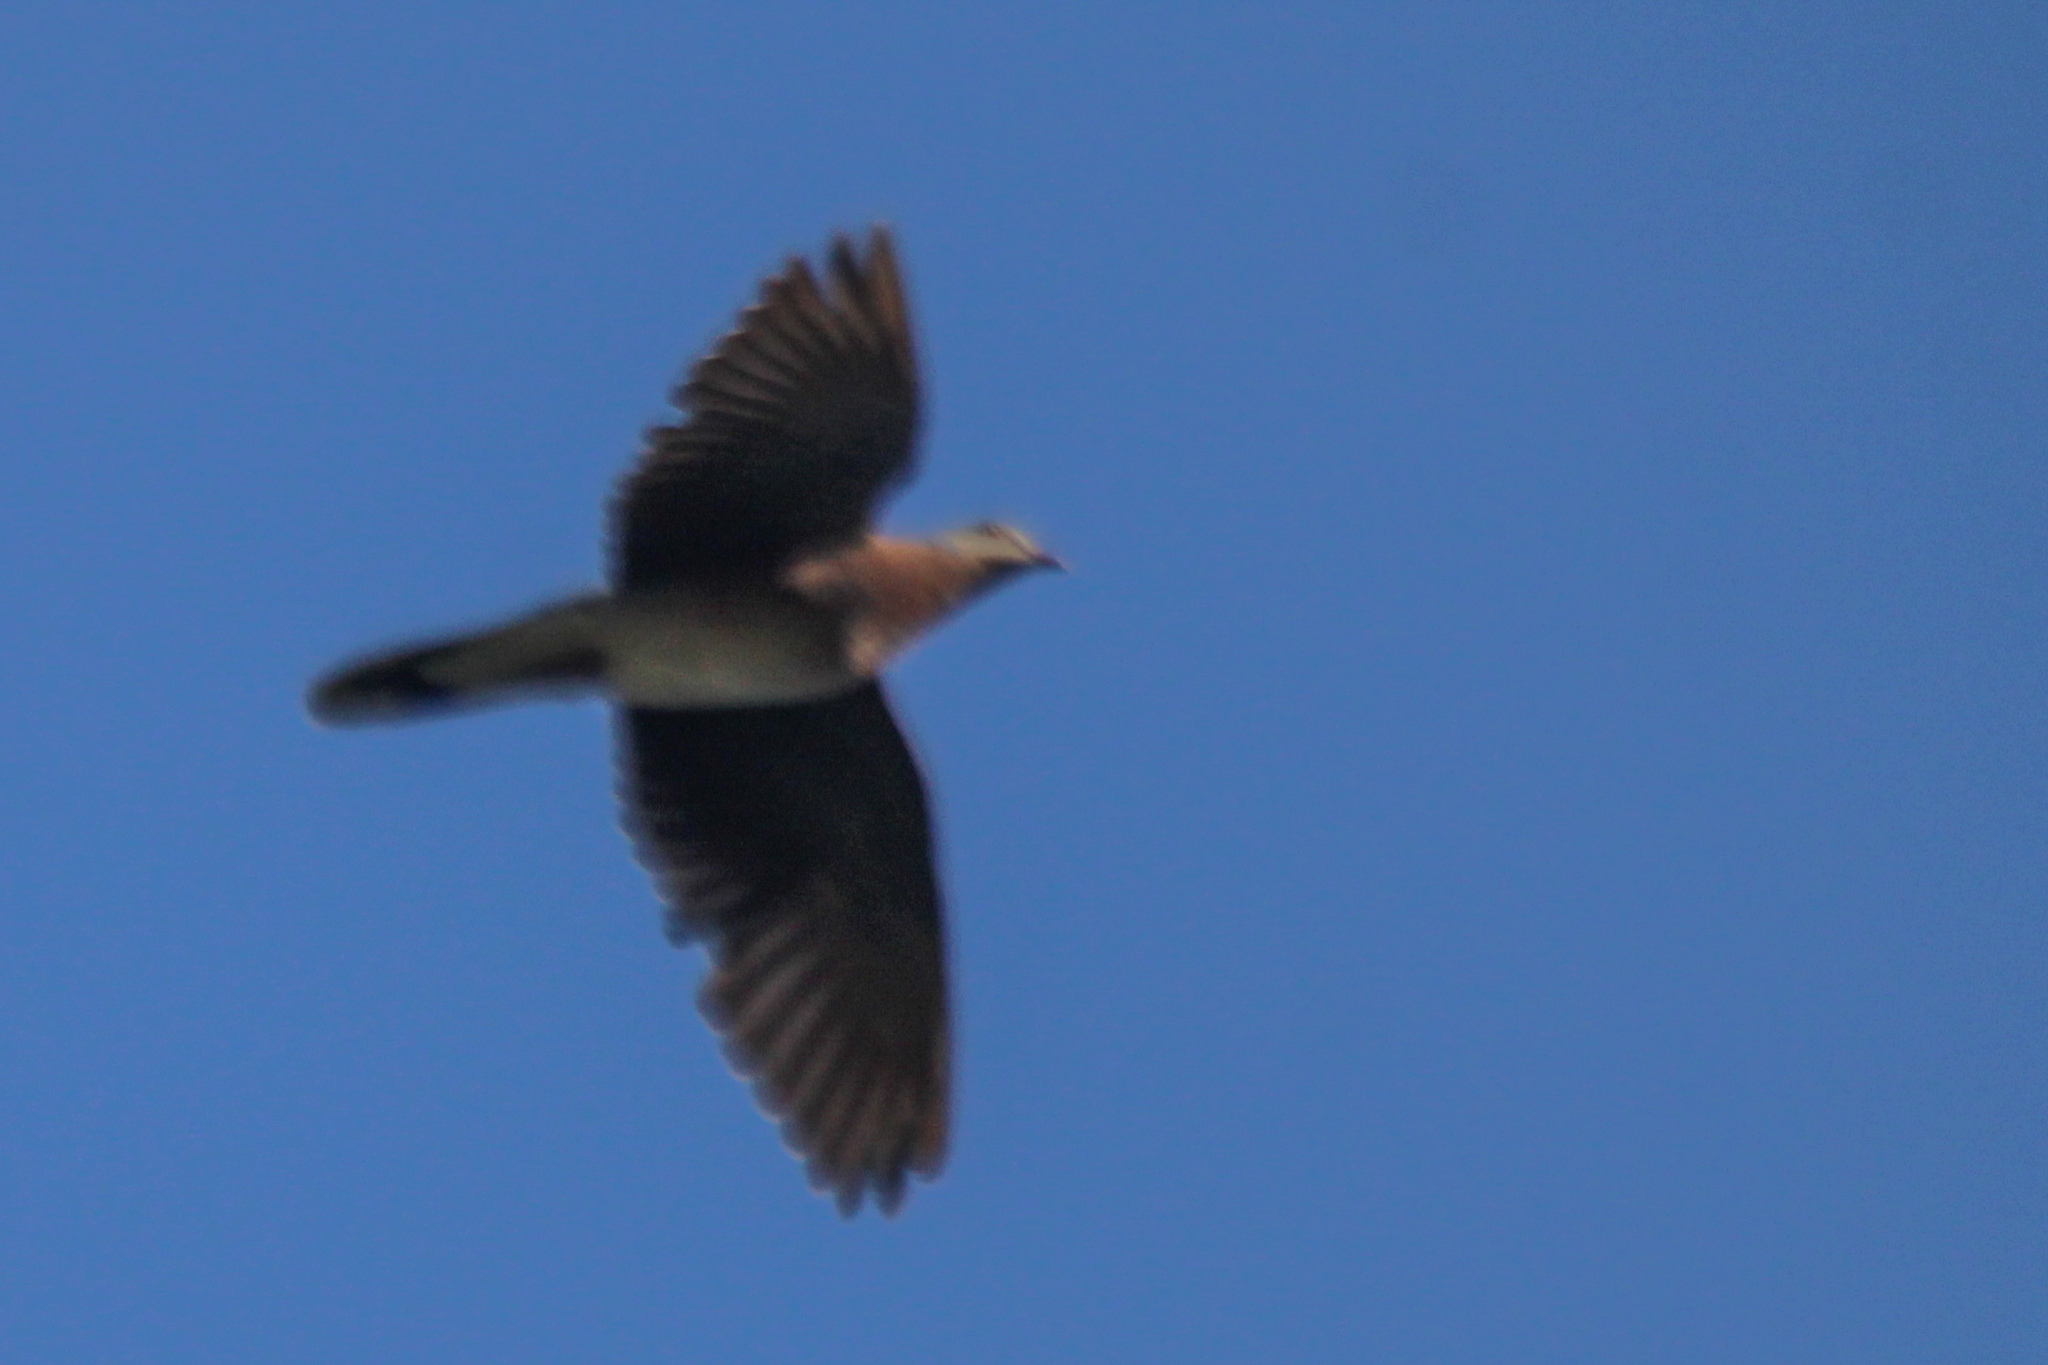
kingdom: Animalia
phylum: Chordata
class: Aves
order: Columbiformes
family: Columbidae
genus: Streptopelia
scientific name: Streptopelia orientalis
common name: Oriental turtle dove
